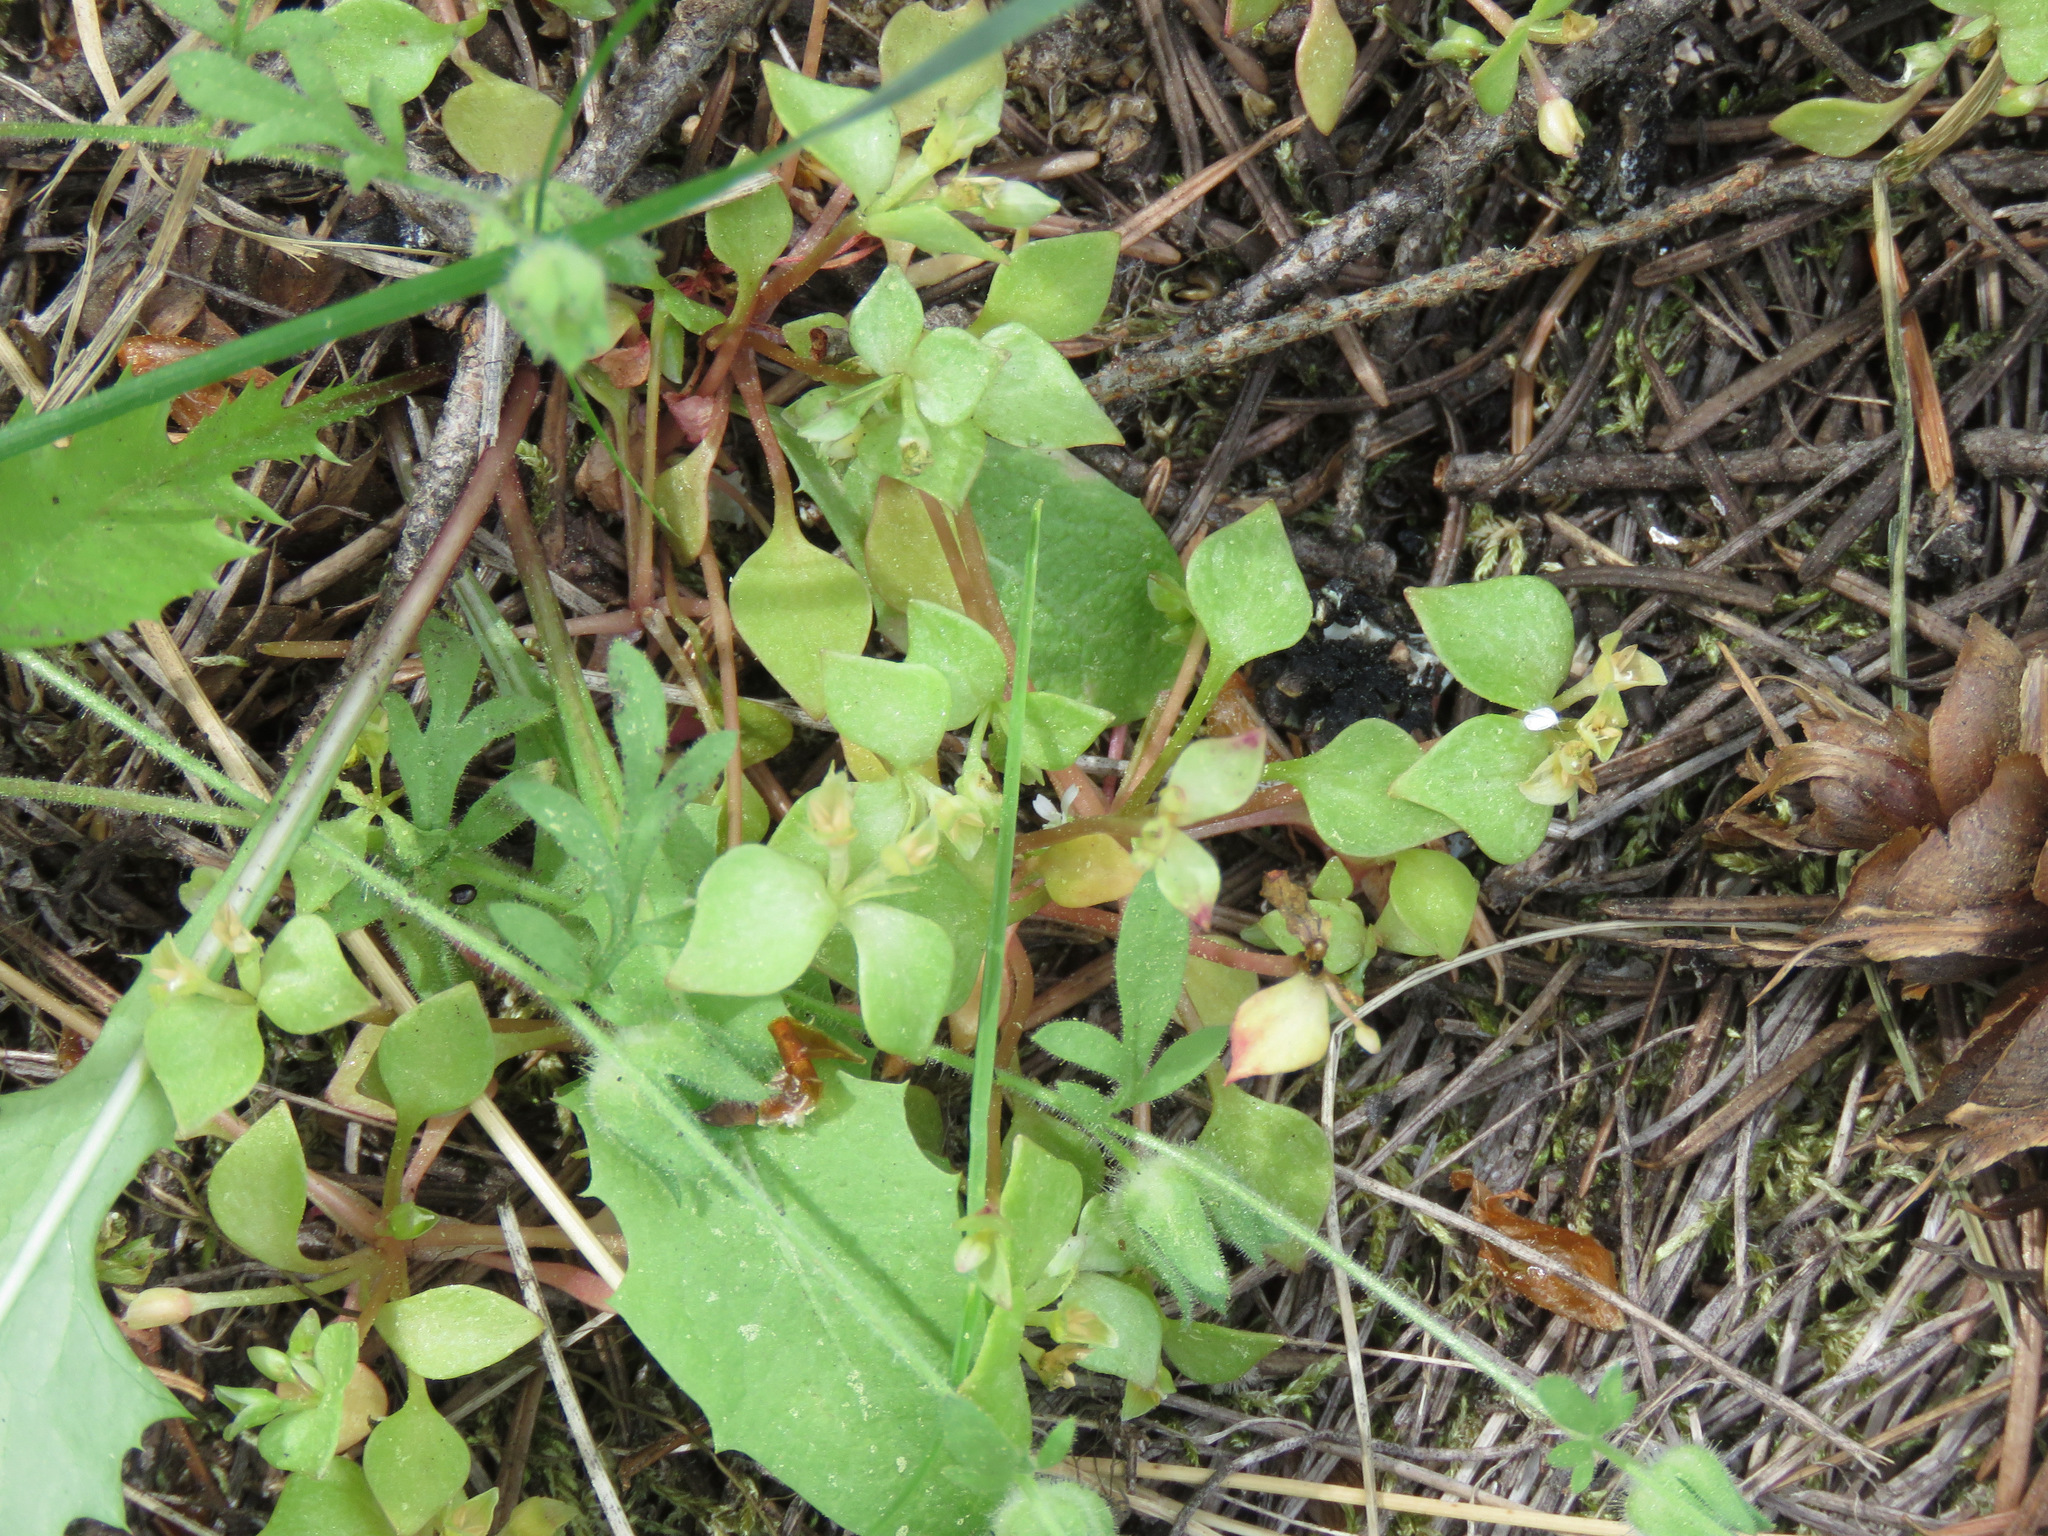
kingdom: Plantae
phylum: Tracheophyta
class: Magnoliopsida
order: Caryophyllales
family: Montiaceae
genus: Claytonia
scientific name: Claytonia rubra
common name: Erubescent miner's-lettuce
